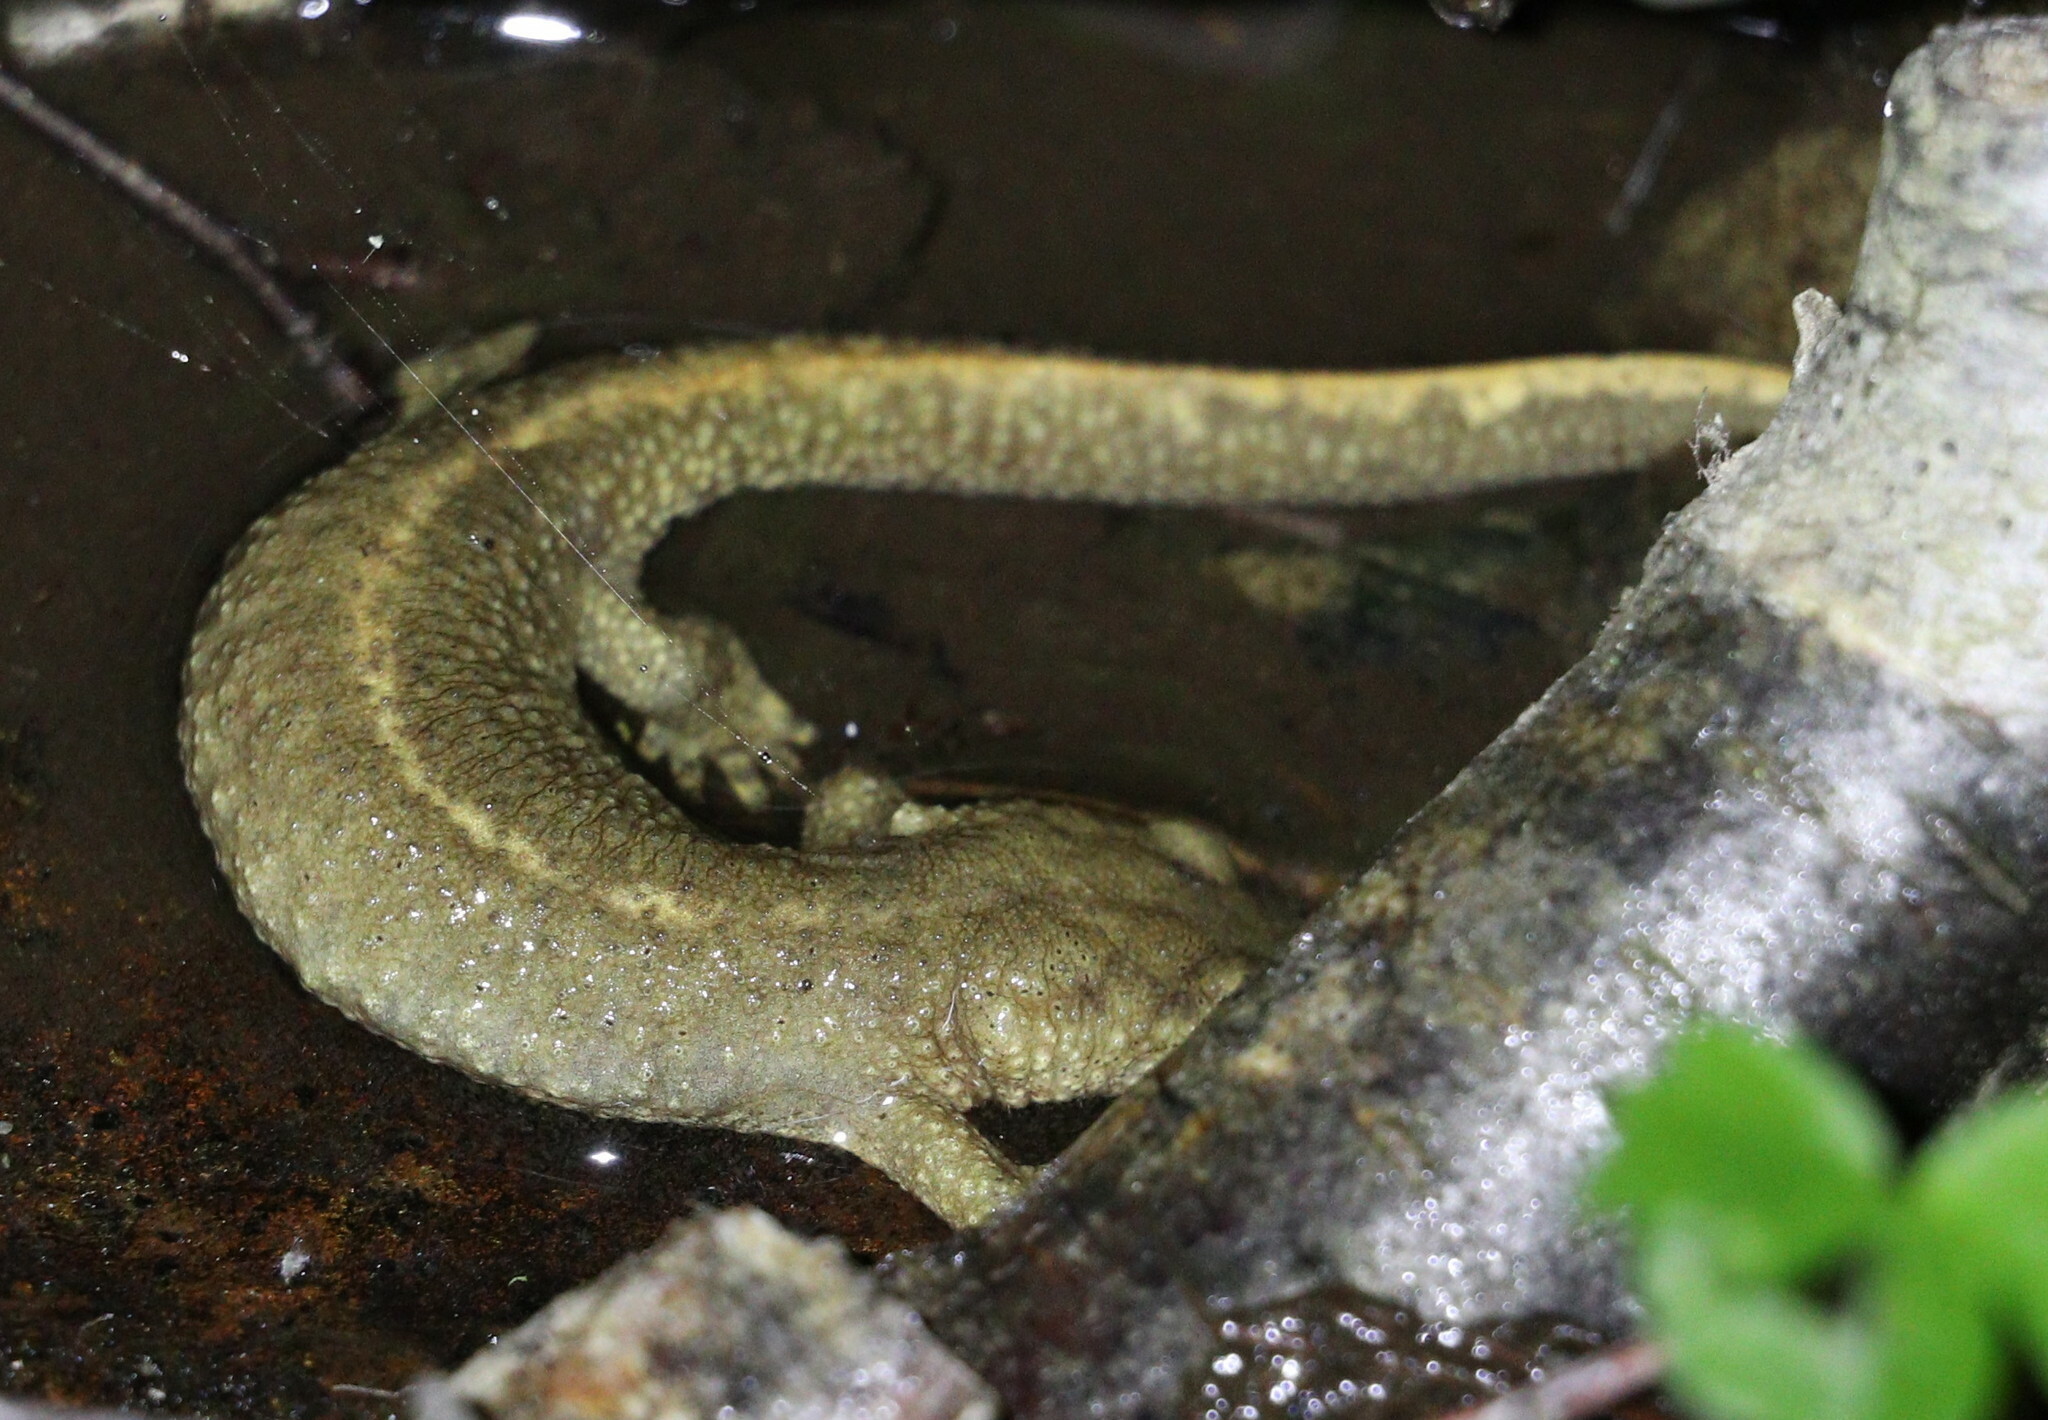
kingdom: Animalia
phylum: Chordata
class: Amphibia
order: Caudata
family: Salamandridae
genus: Calotriton
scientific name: Calotriton asper
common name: Pyrenean brook salamander
